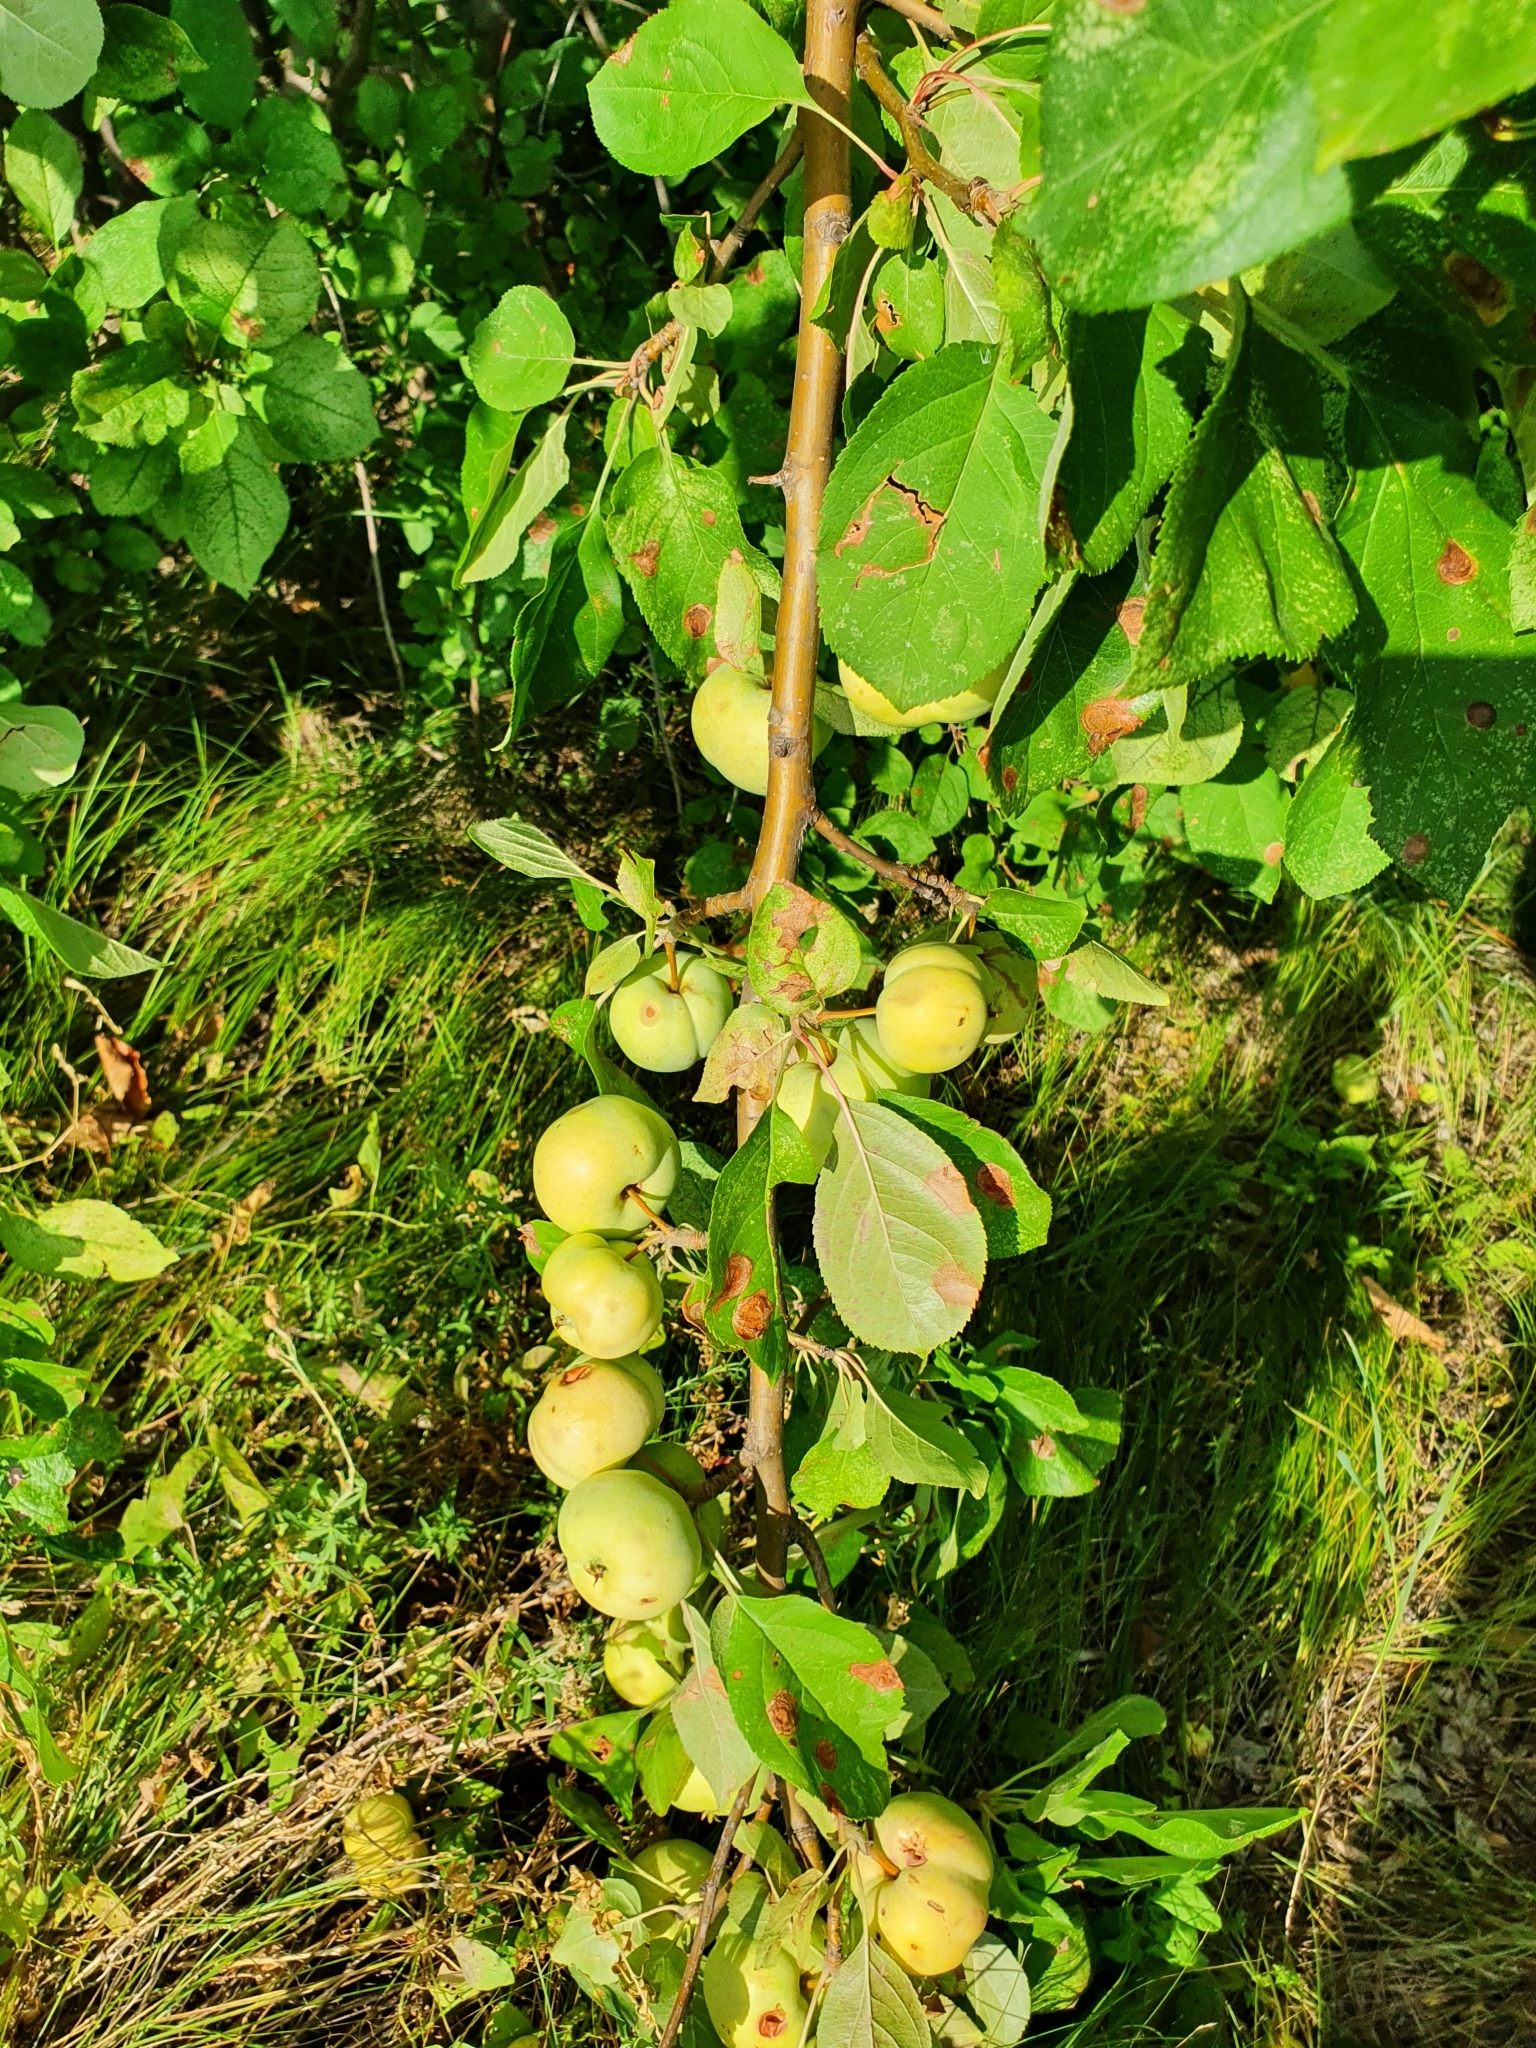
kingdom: Plantae
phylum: Tracheophyta
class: Magnoliopsida
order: Rosales
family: Rosaceae
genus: Malus
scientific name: Malus domestica
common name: Apple
